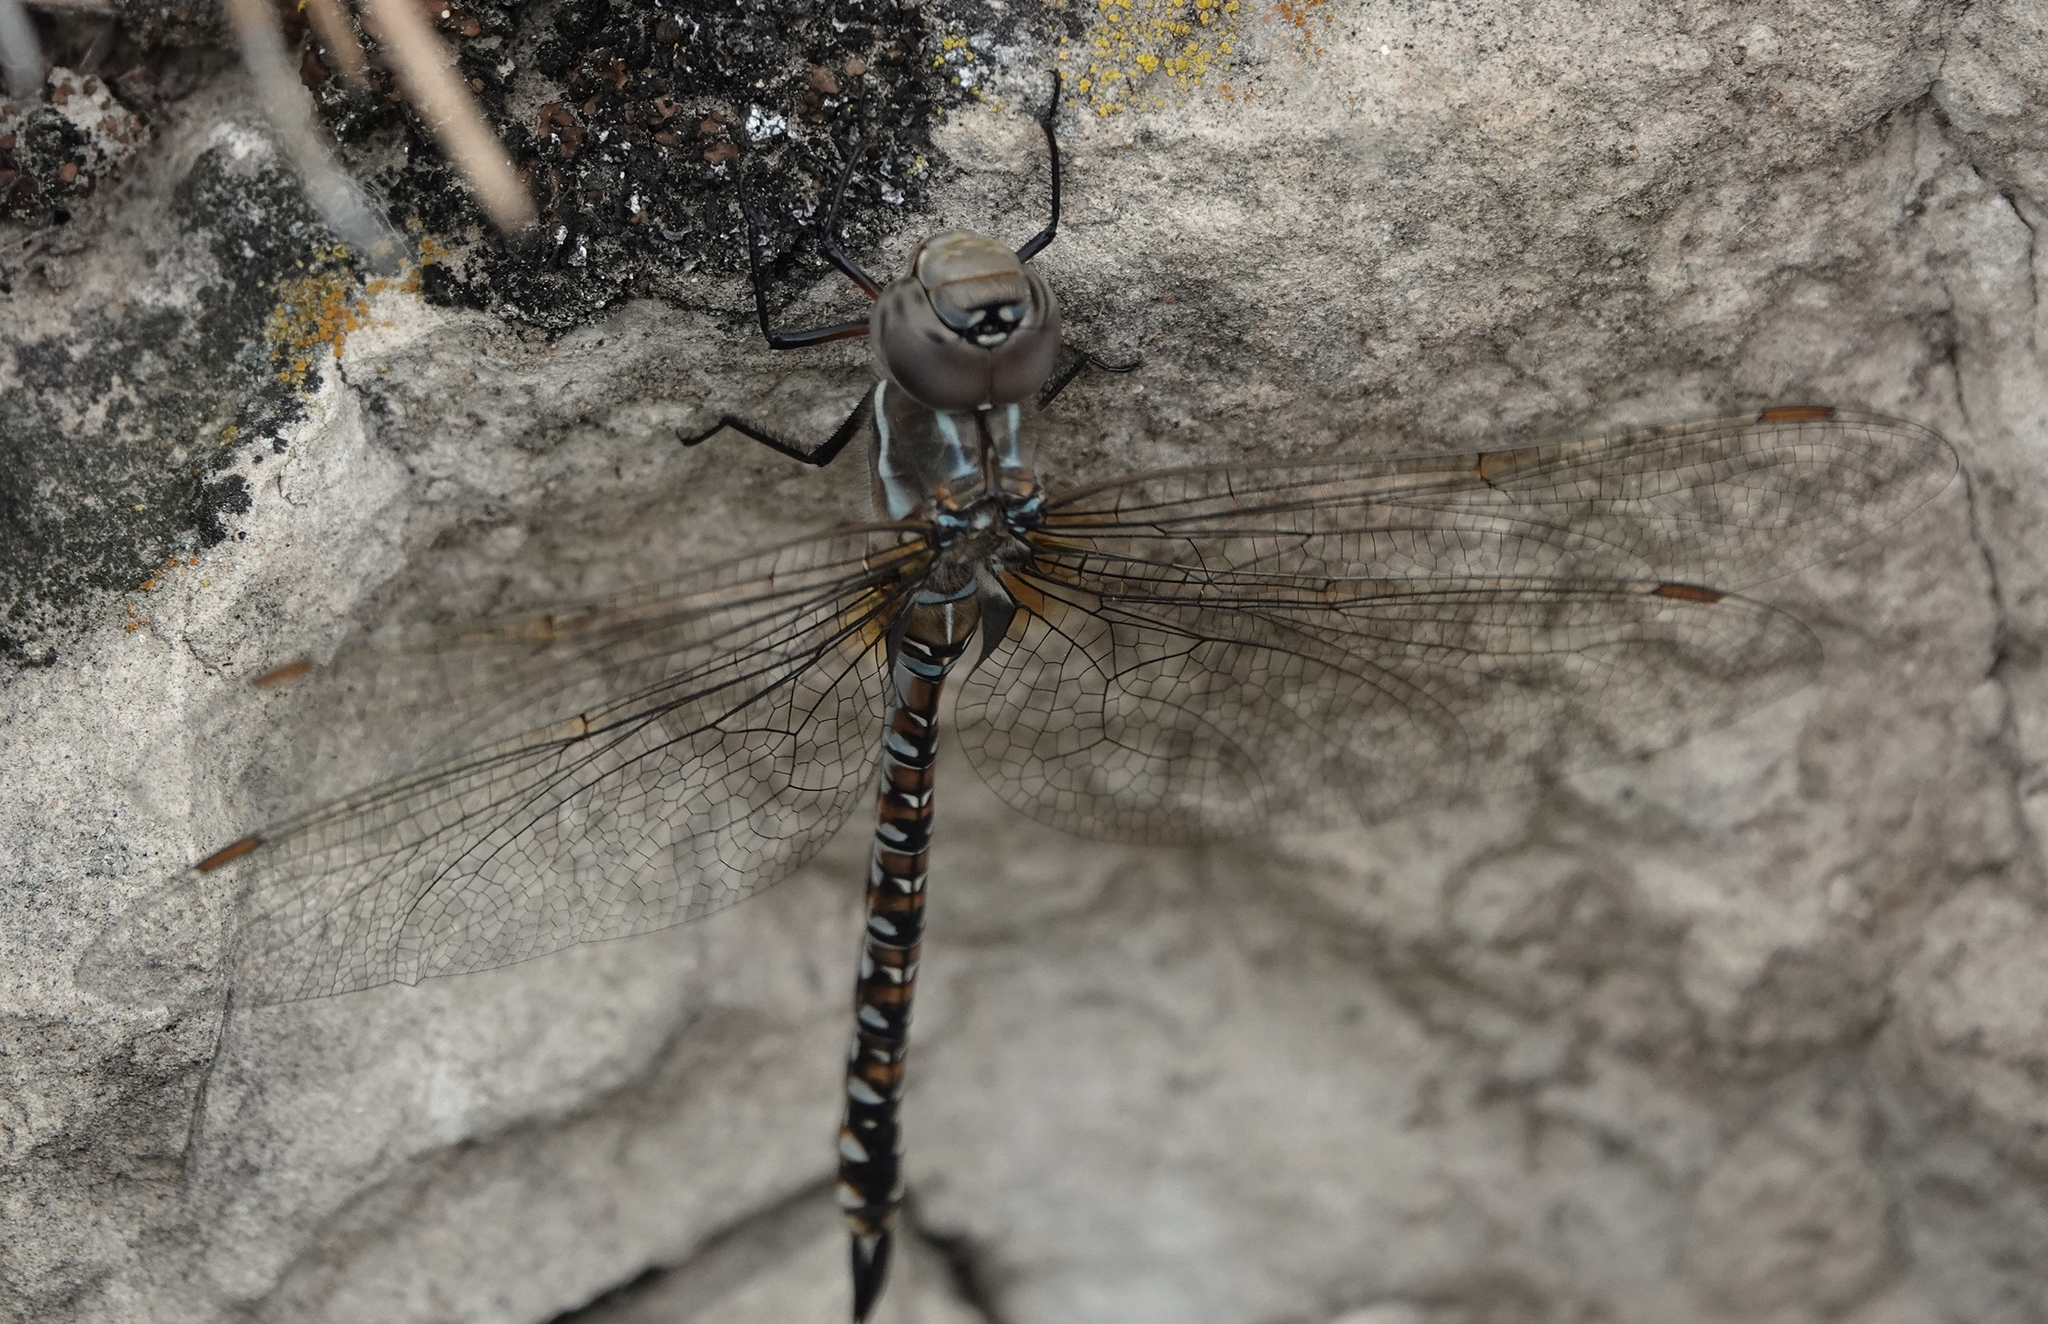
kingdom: Animalia
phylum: Arthropoda
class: Insecta
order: Odonata
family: Aeshnidae
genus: Rhionaeschna
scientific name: Rhionaeschna multicolor
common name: Blue-eyed darner
